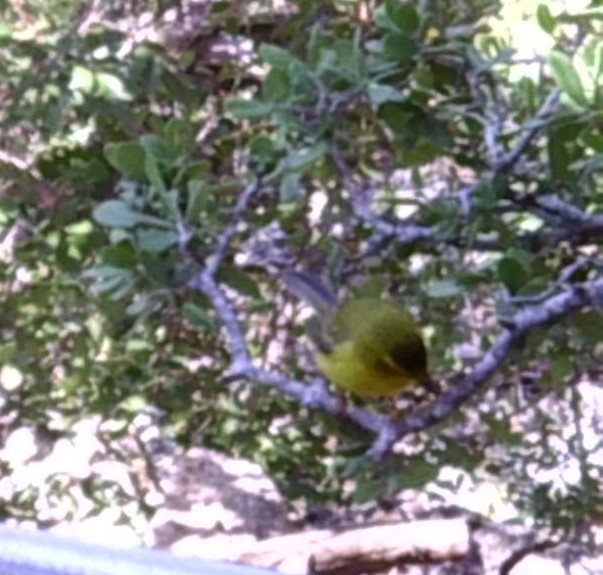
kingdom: Animalia
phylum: Chordata
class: Aves
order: Passeriformes
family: Parulidae
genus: Cardellina
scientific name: Cardellina pusilla
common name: Wilson's warbler
